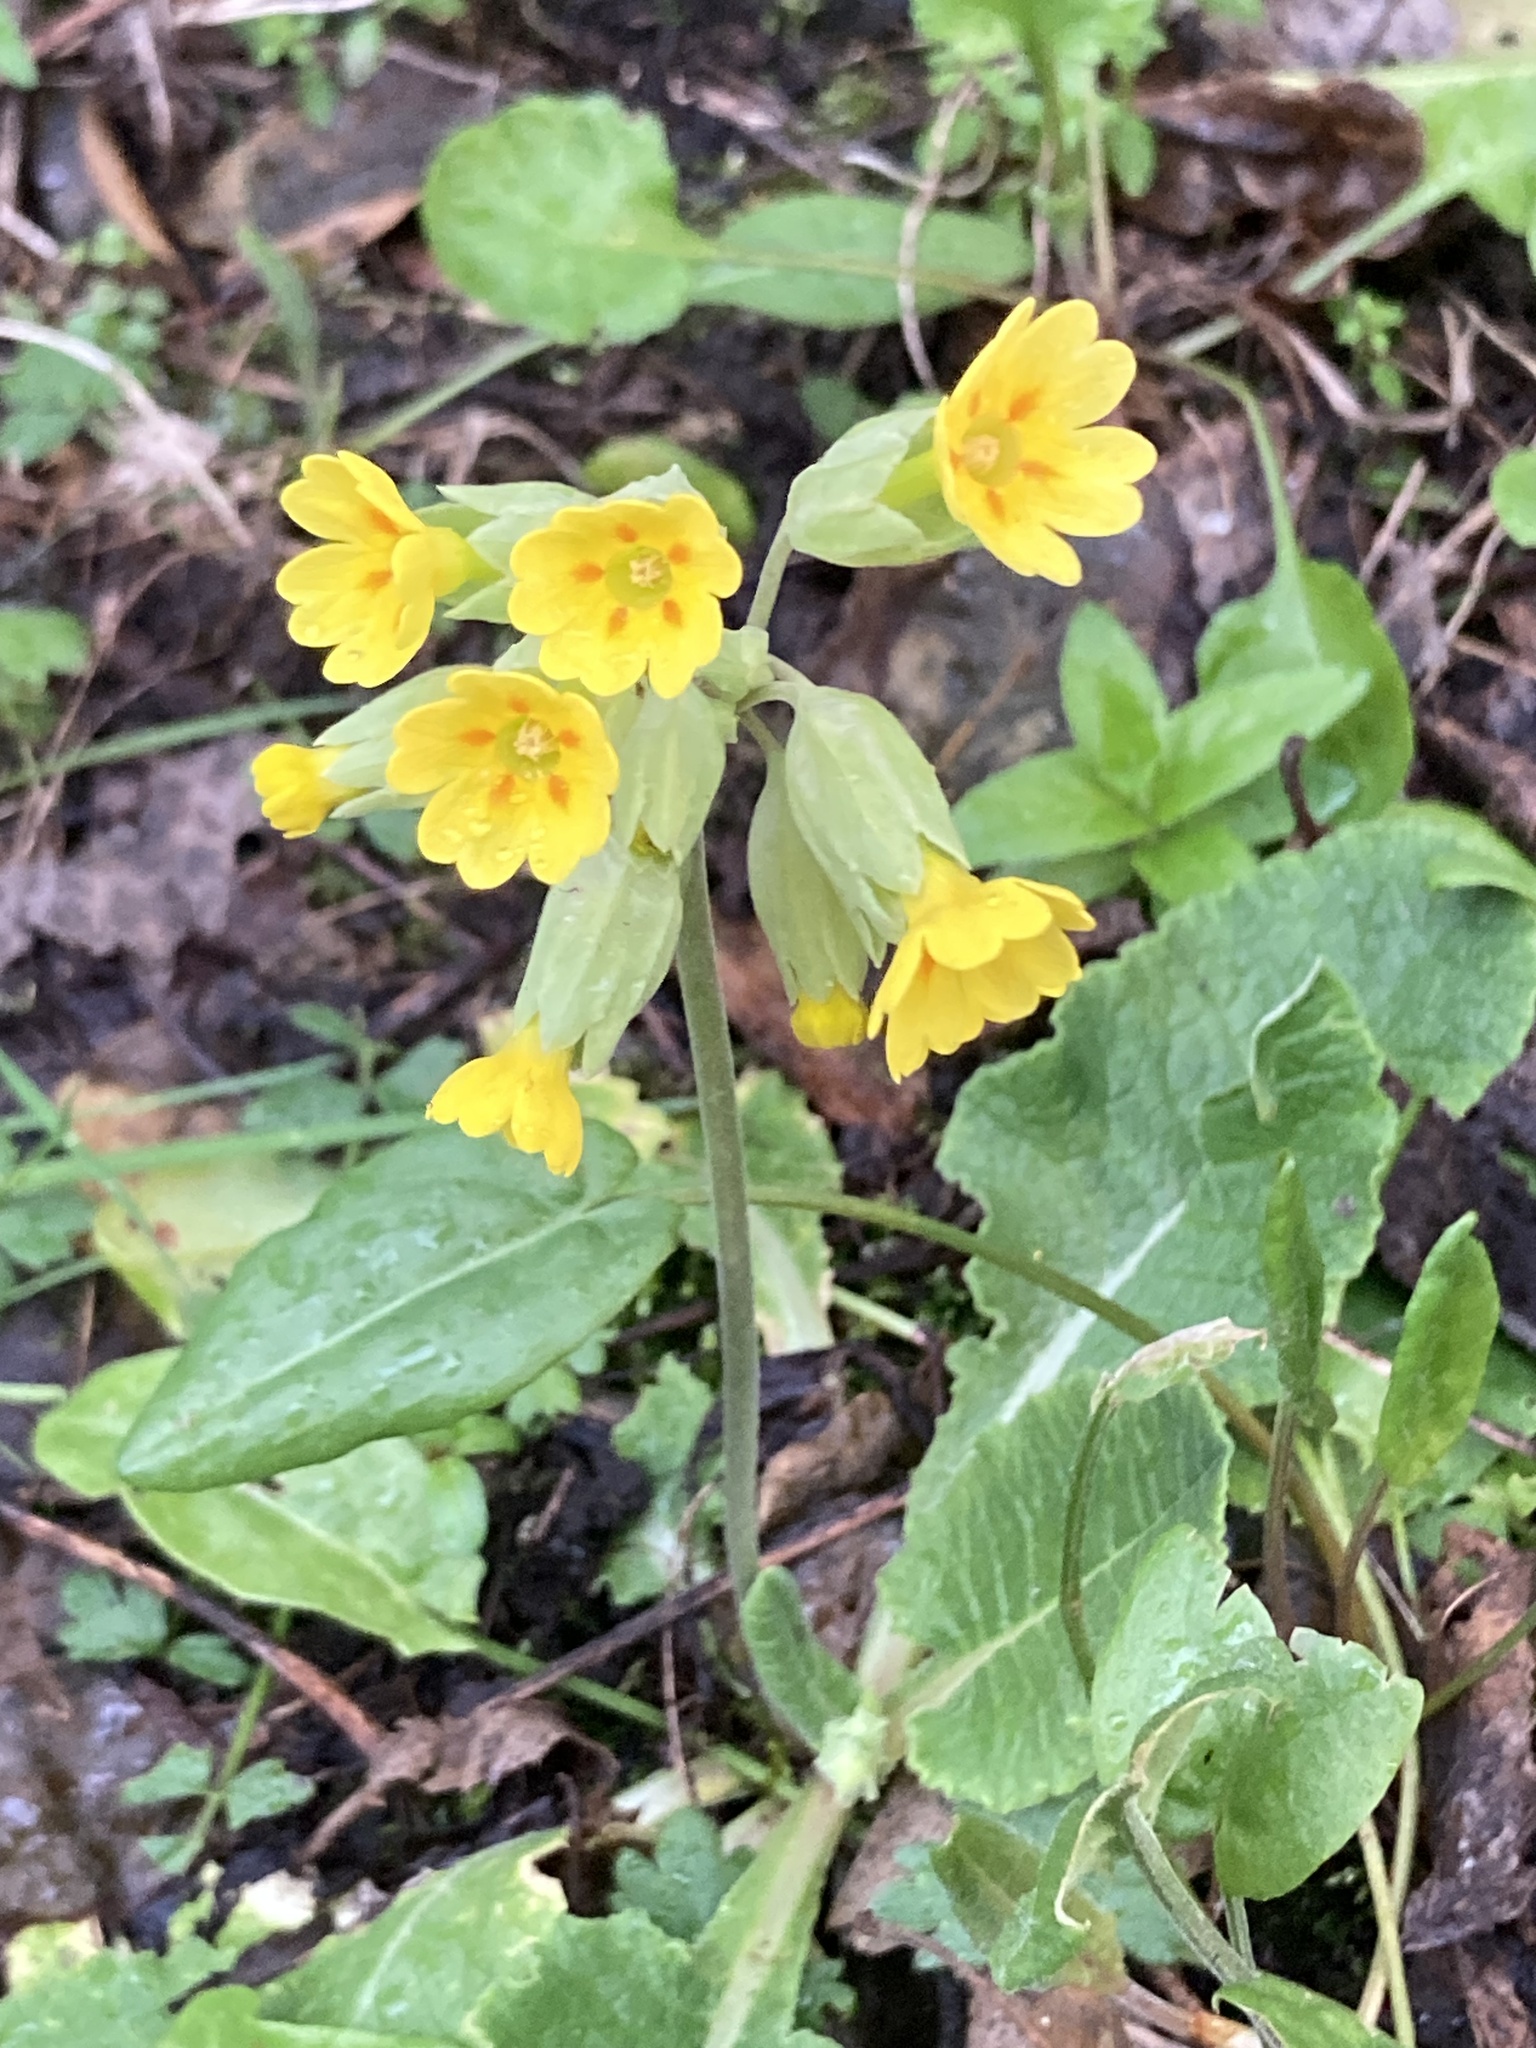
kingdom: Plantae
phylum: Tracheophyta
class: Magnoliopsida
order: Ericales
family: Primulaceae
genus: Primula
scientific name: Primula veris
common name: Cowslip
